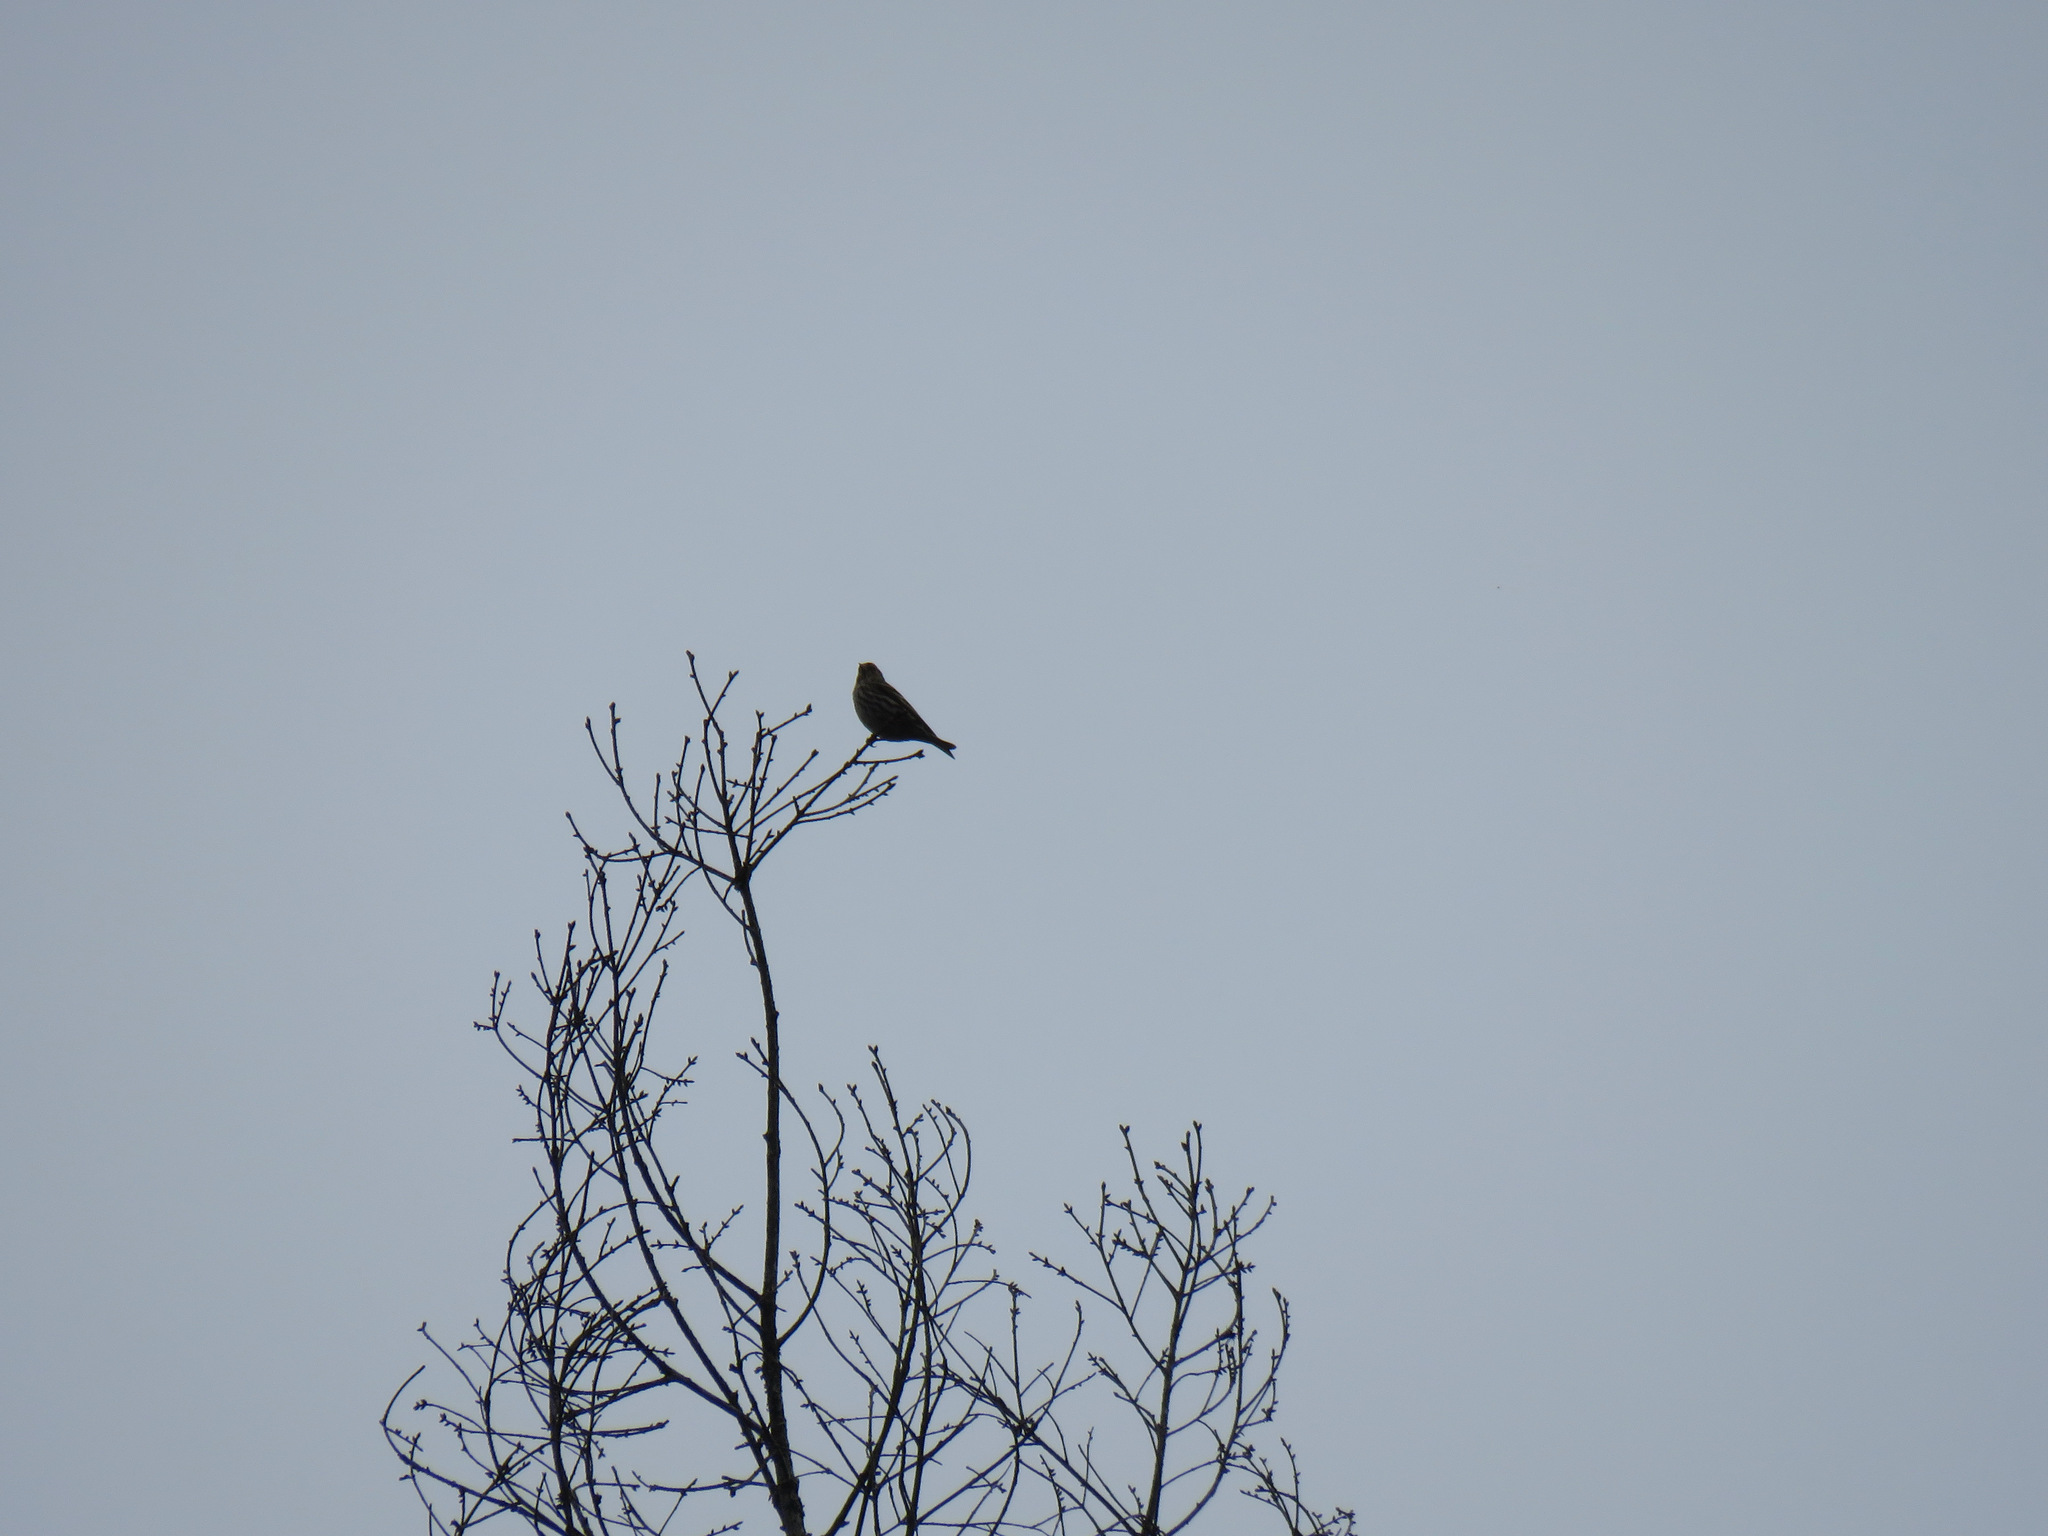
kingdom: Animalia
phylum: Chordata
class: Aves
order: Passeriformes
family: Fringillidae
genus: Spinus
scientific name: Spinus pinus
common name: Pine siskin
